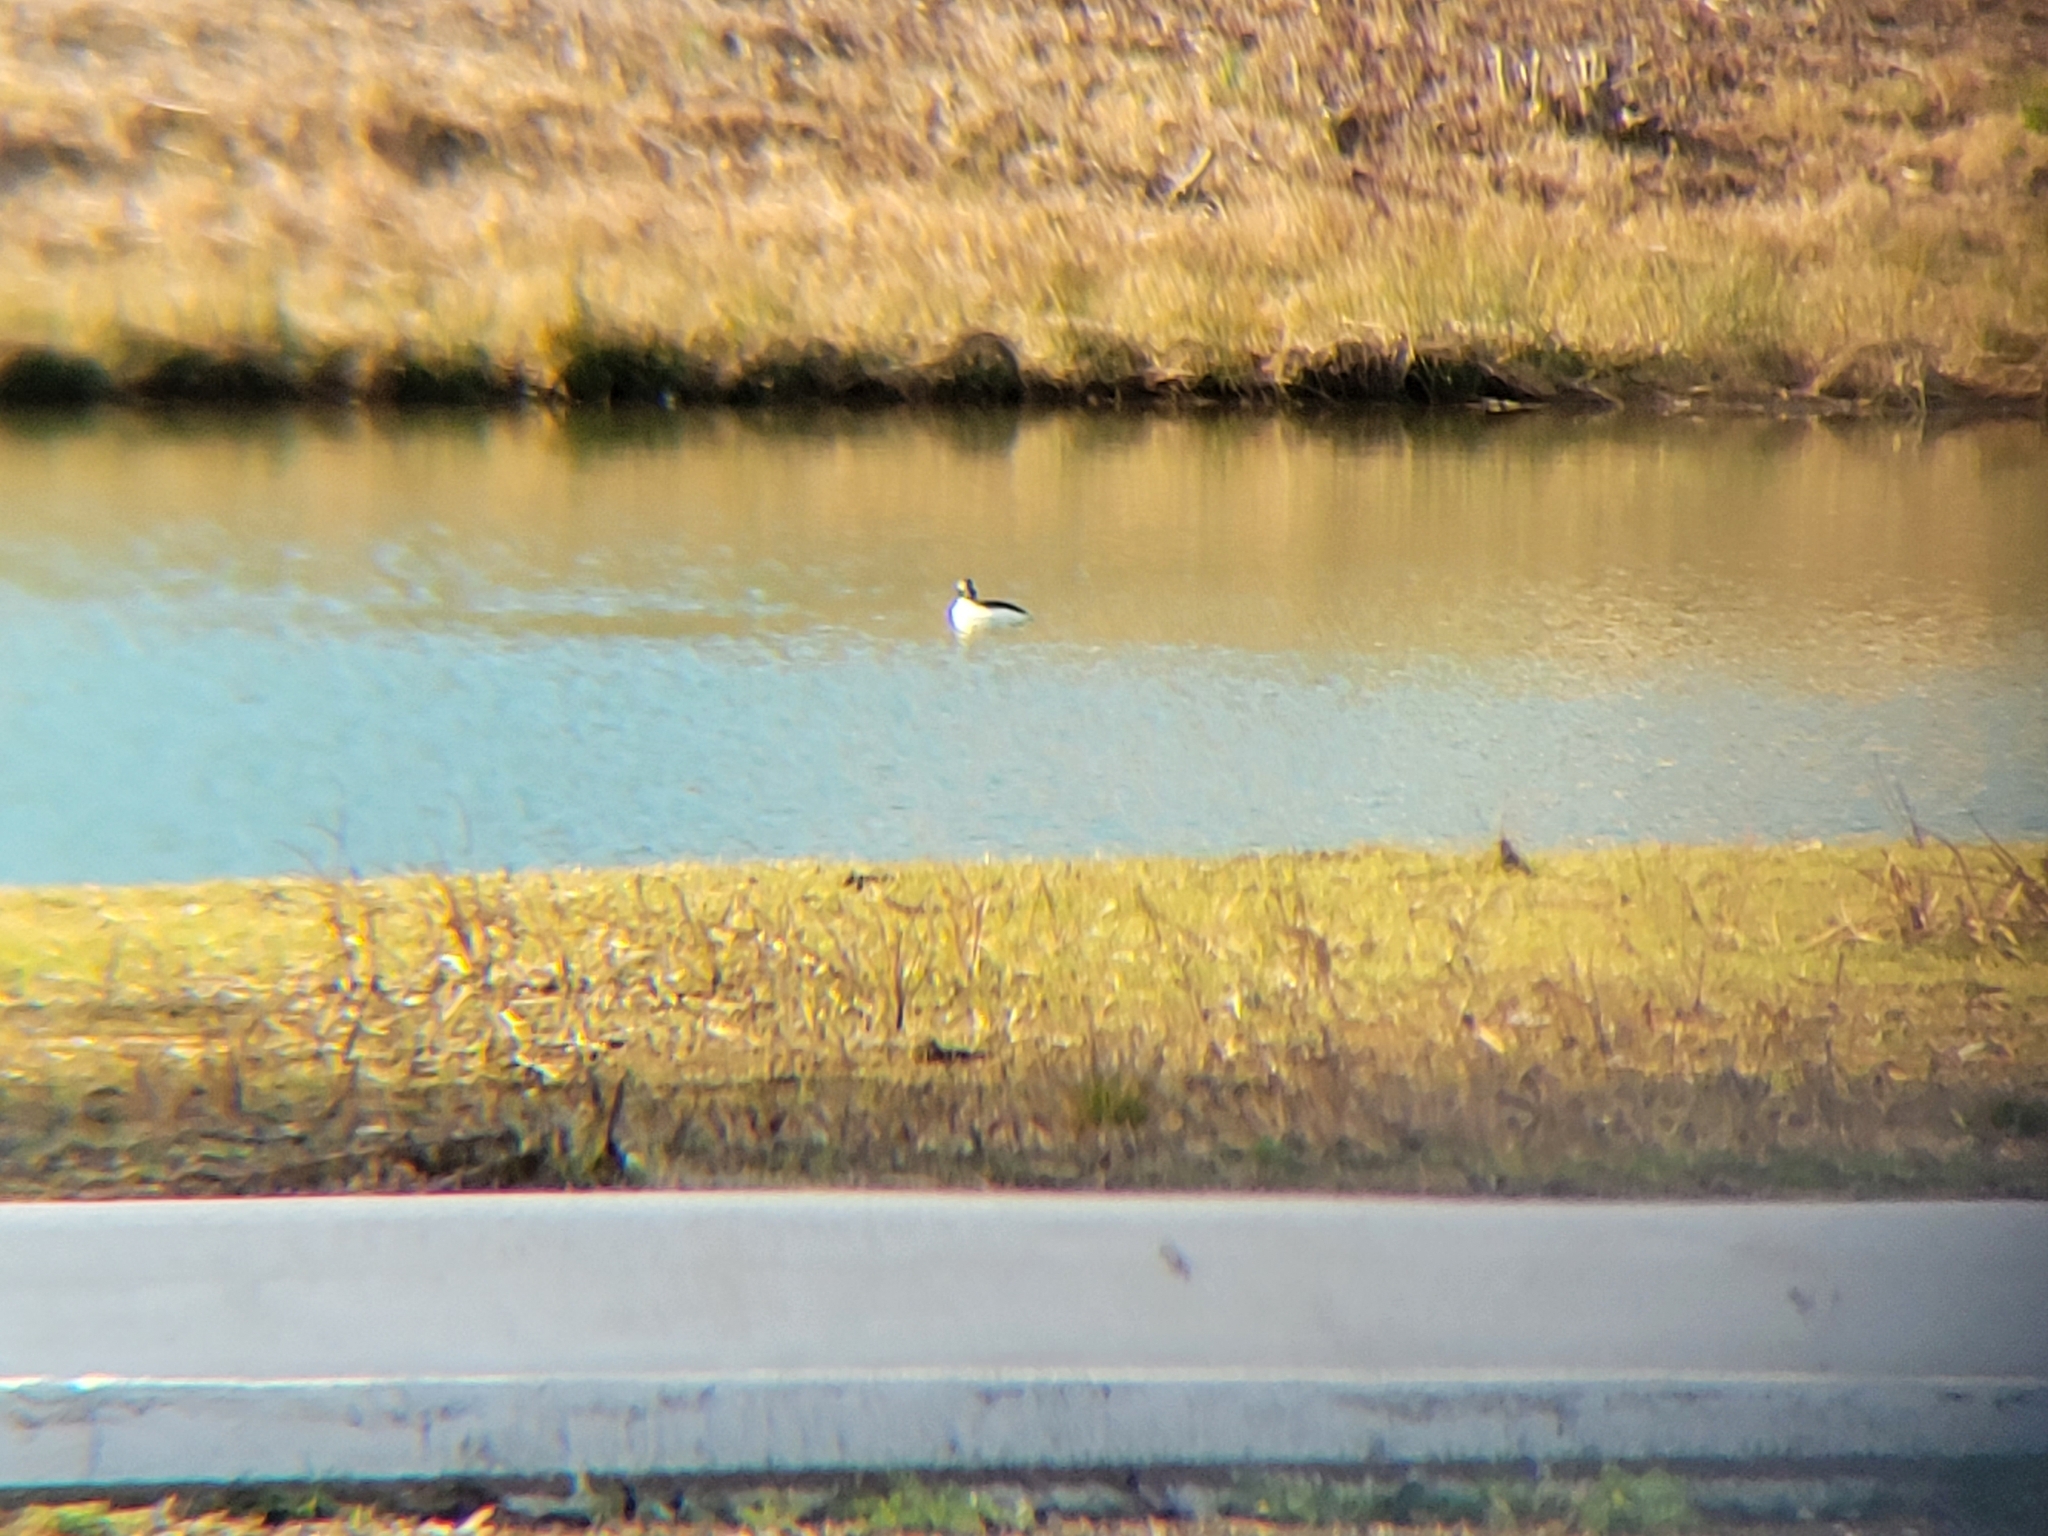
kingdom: Animalia
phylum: Chordata
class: Aves
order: Anseriformes
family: Anatidae
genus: Bucephala
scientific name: Bucephala albeola
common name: Bufflehead
